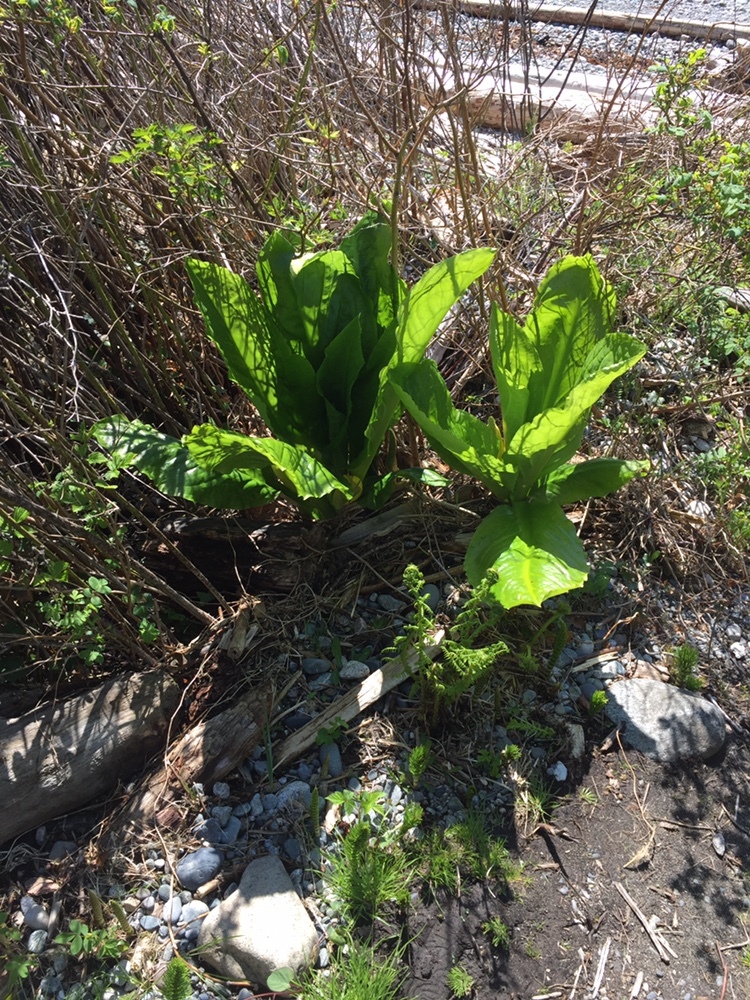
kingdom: Plantae
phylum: Tracheophyta
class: Liliopsida
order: Alismatales
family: Araceae
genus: Lysichiton
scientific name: Lysichiton americanus
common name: American skunk cabbage
